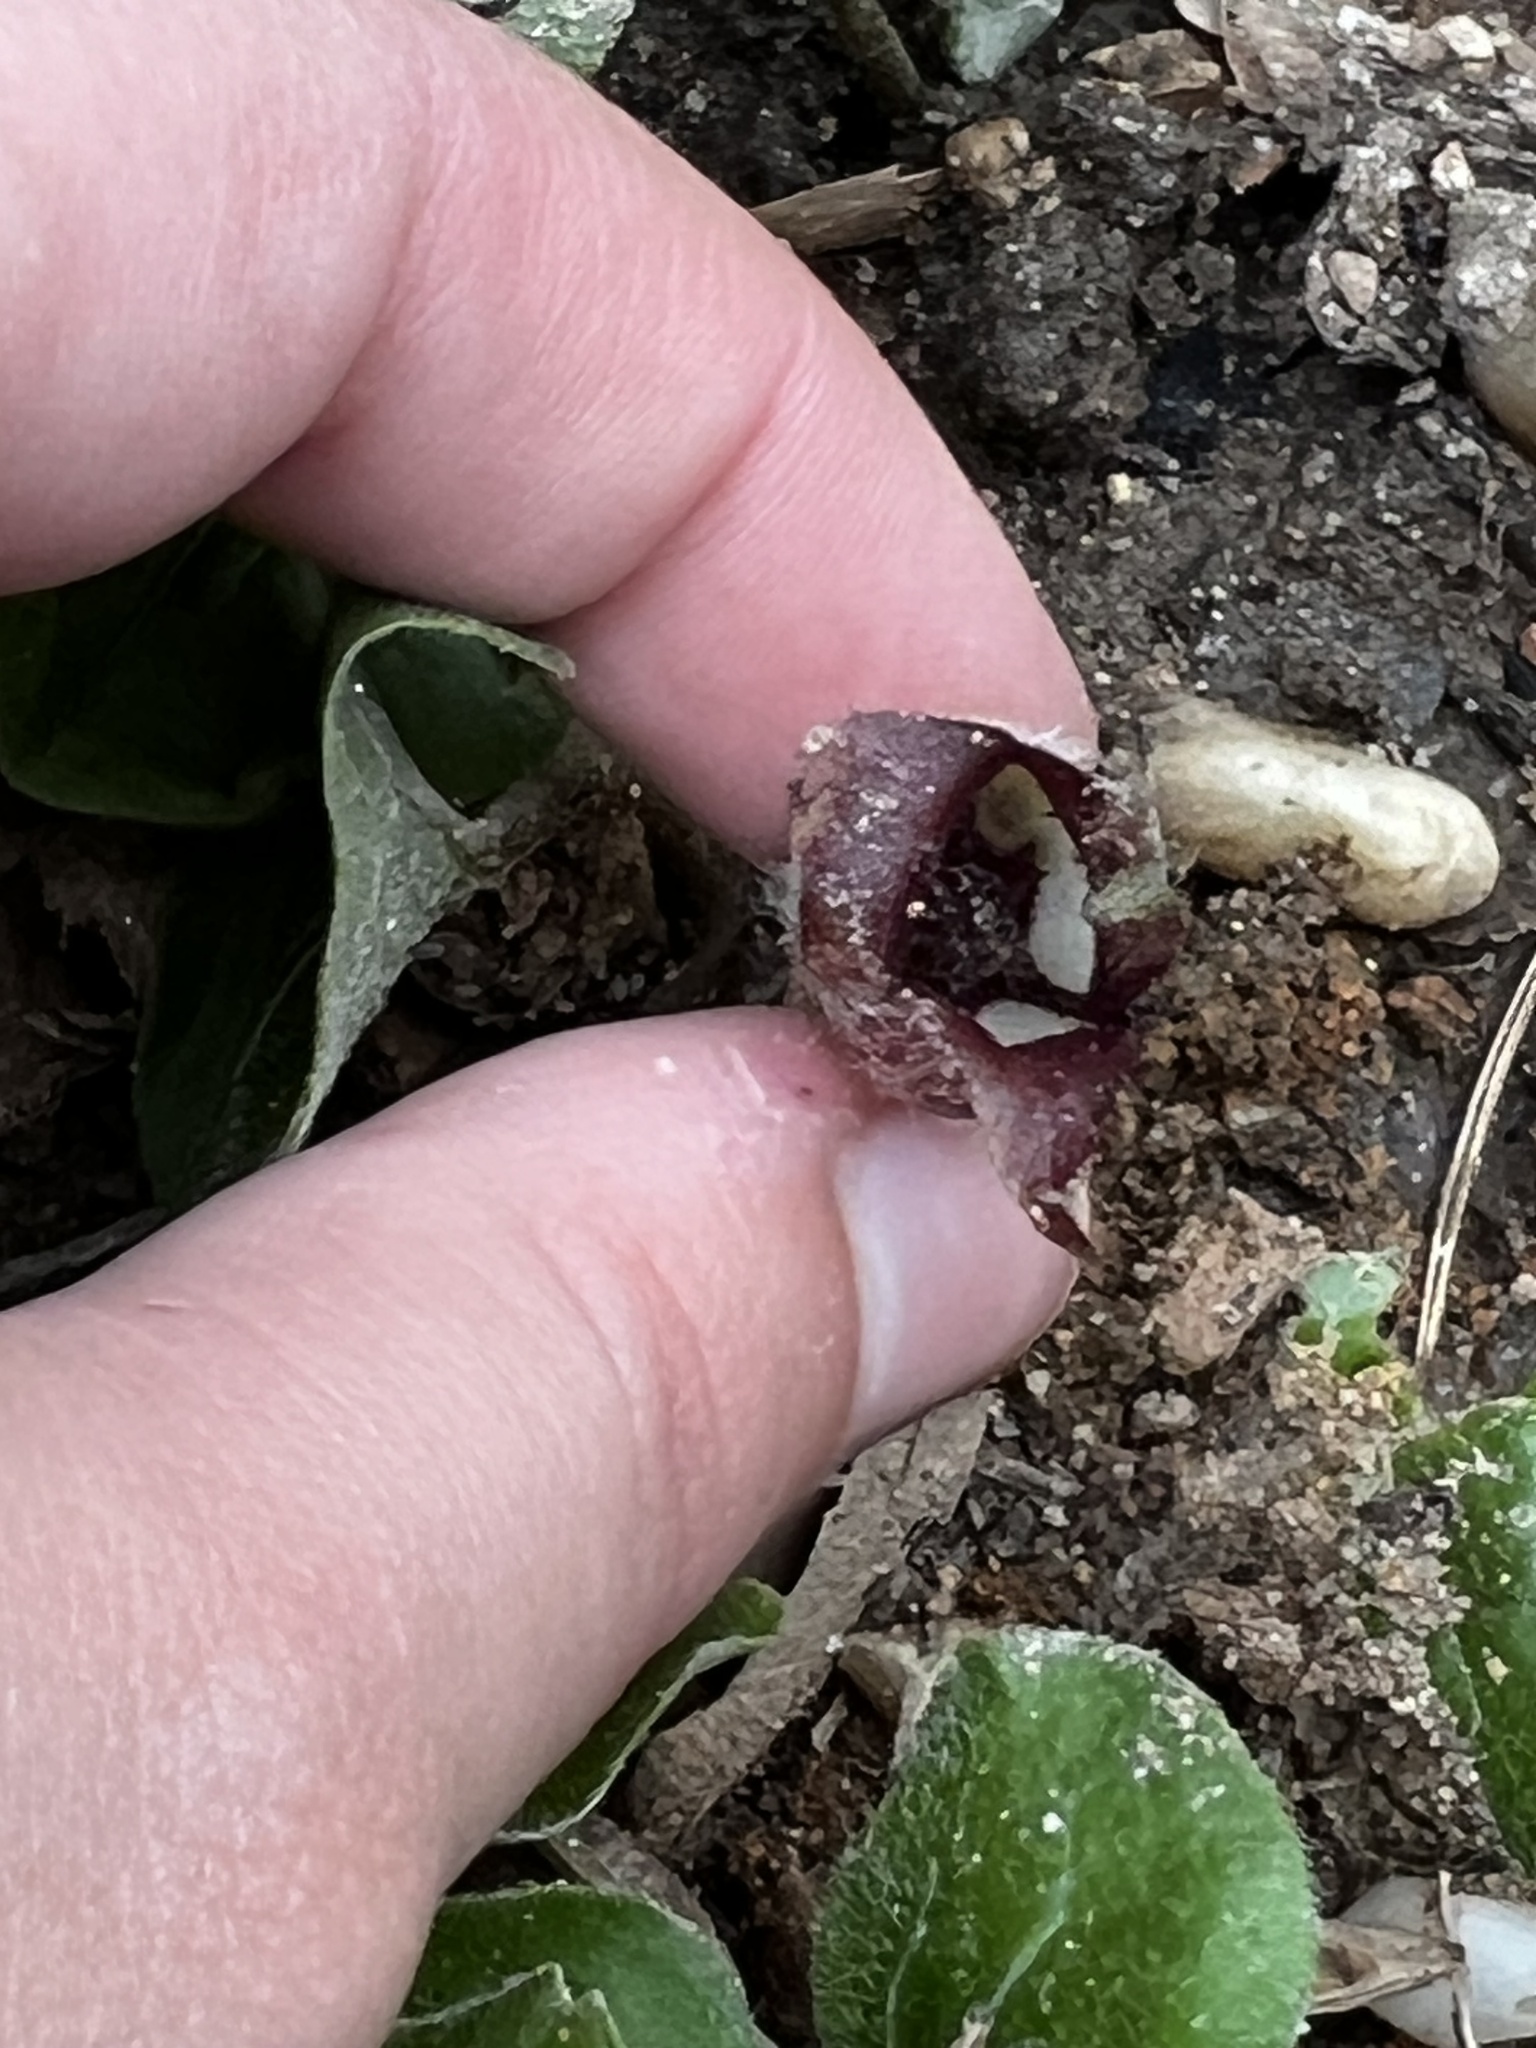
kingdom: Plantae
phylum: Tracheophyta
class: Magnoliopsida
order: Piperales
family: Aristolochiaceae
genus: Asarum
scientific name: Asarum canadense
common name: Wild ginger
